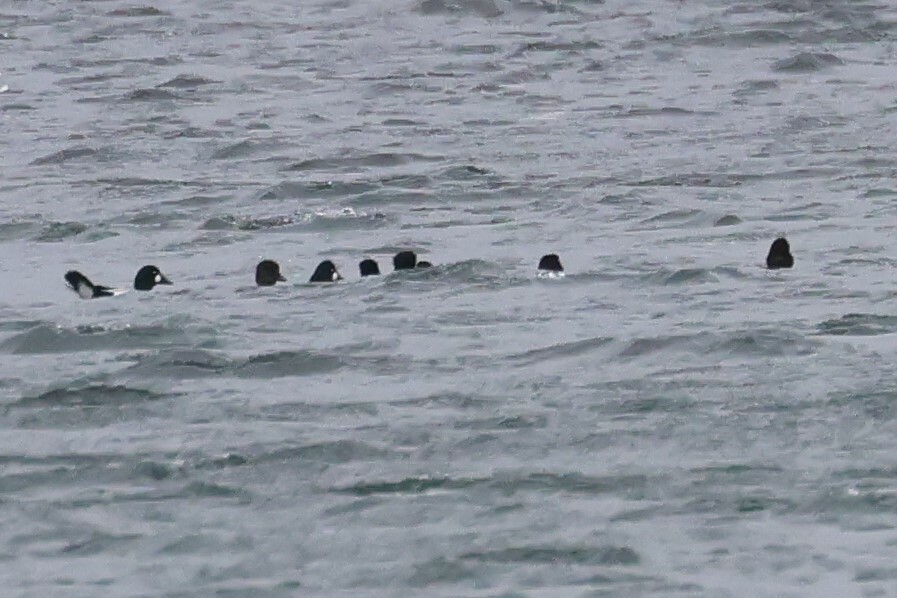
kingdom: Animalia
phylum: Chordata
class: Aves
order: Anseriformes
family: Anatidae
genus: Bucephala
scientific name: Bucephala clangula
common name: Common goldeneye
